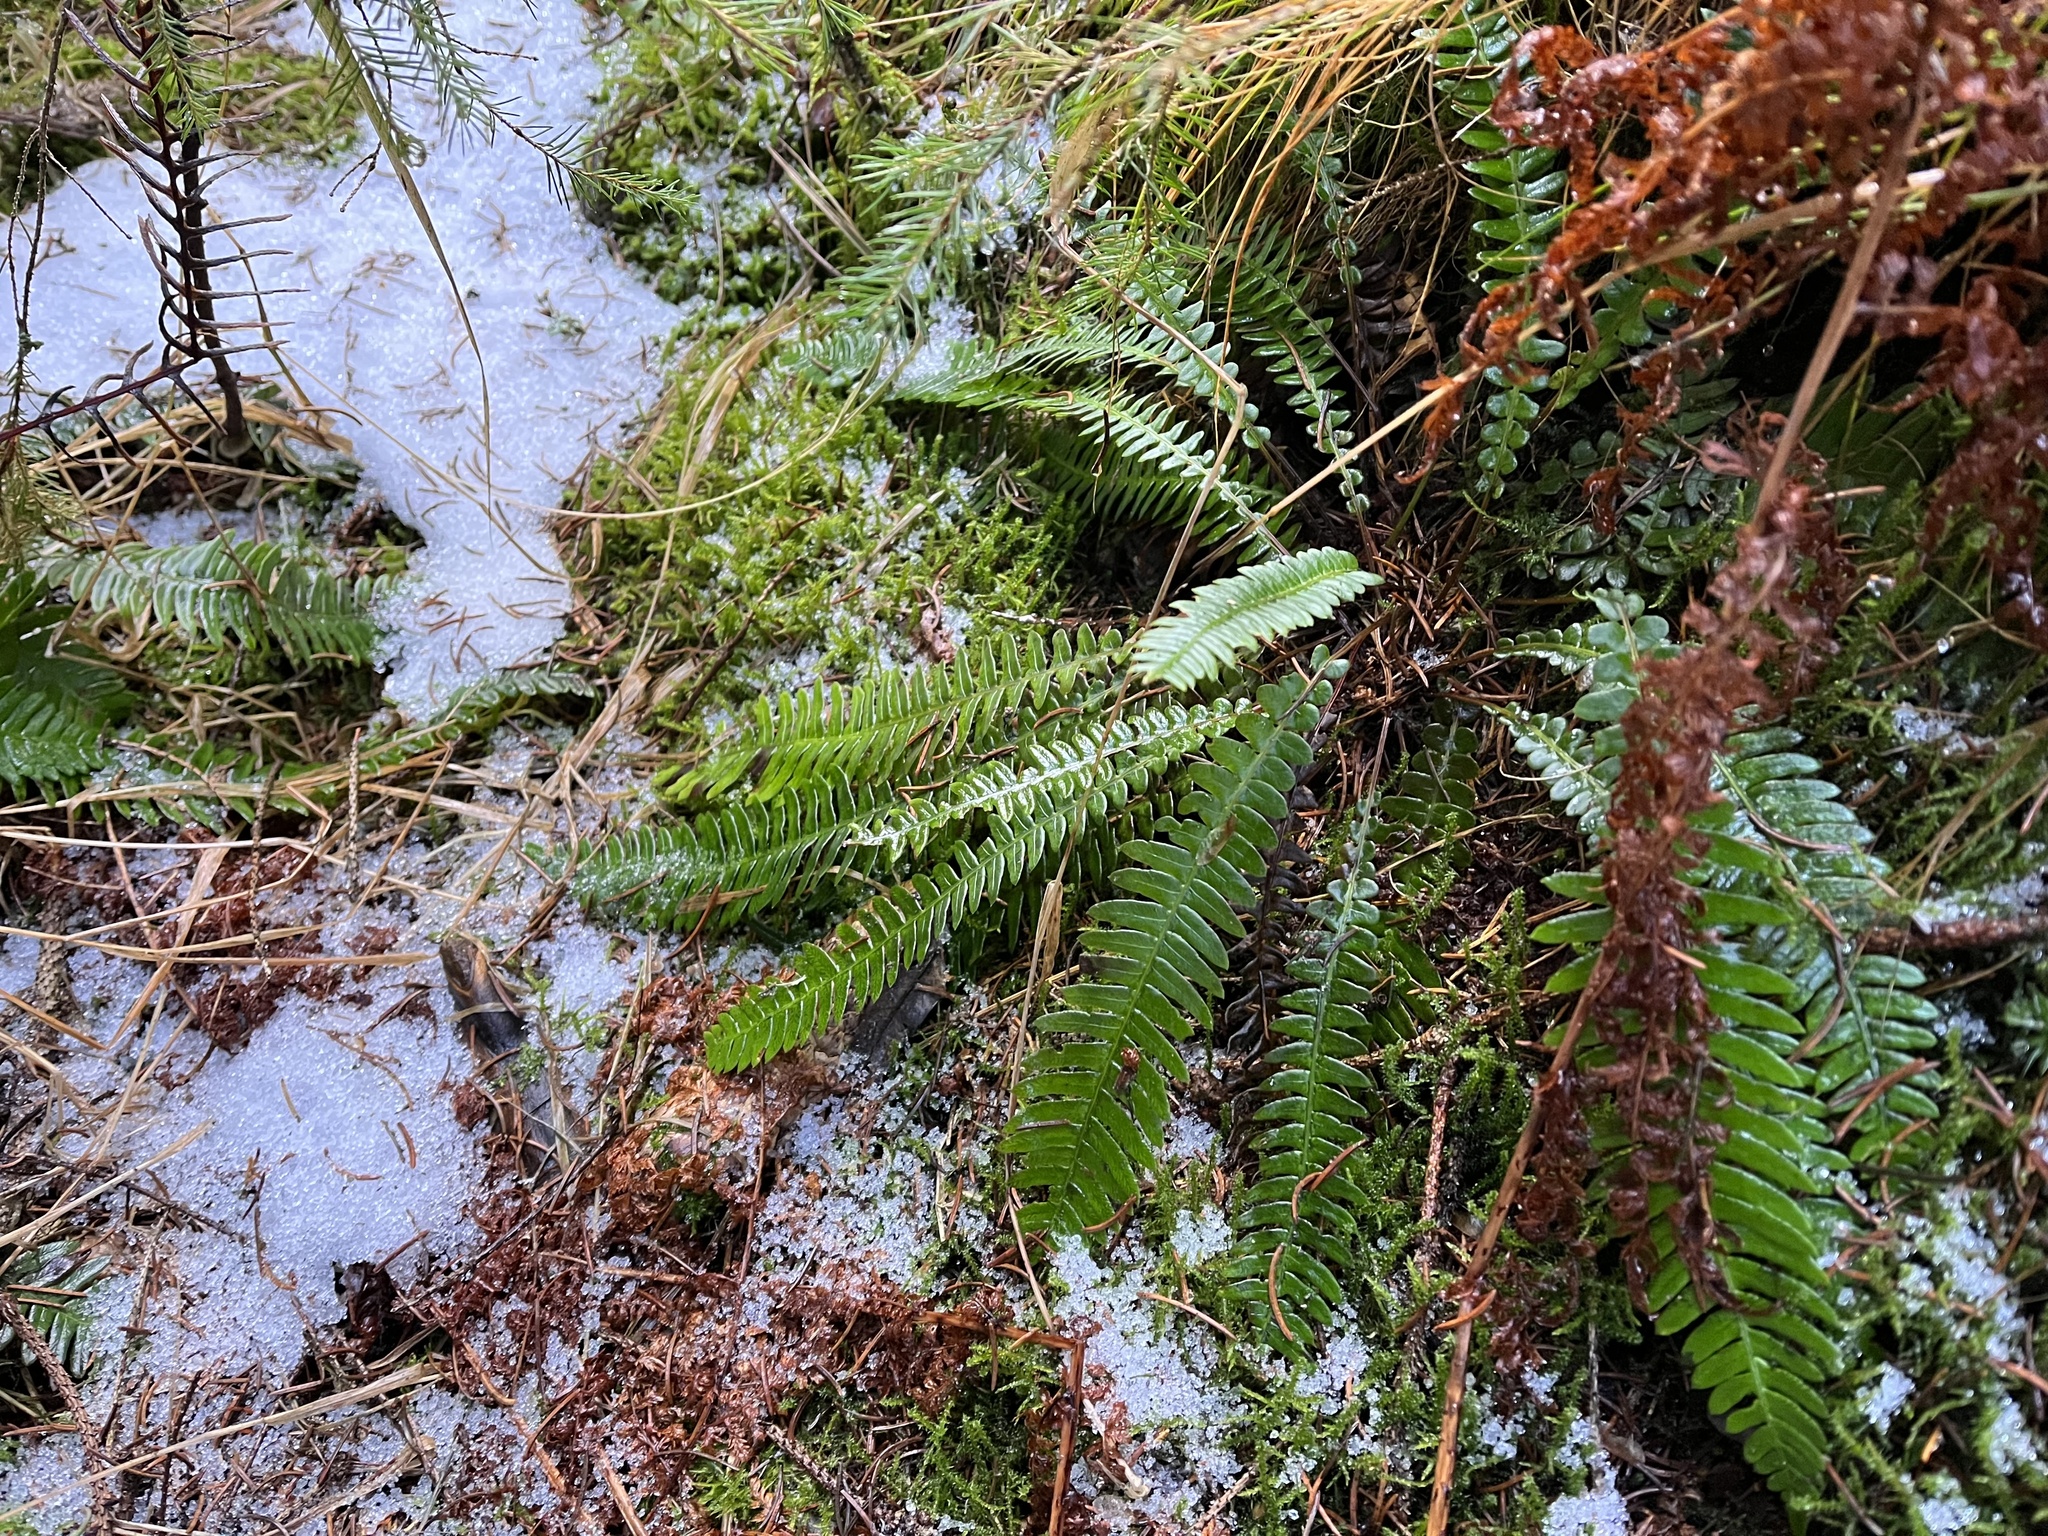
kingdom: Plantae
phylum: Tracheophyta
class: Polypodiopsida
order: Polypodiales
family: Blechnaceae
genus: Struthiopteris
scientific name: Struthiopteris spicant
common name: Deer fern
